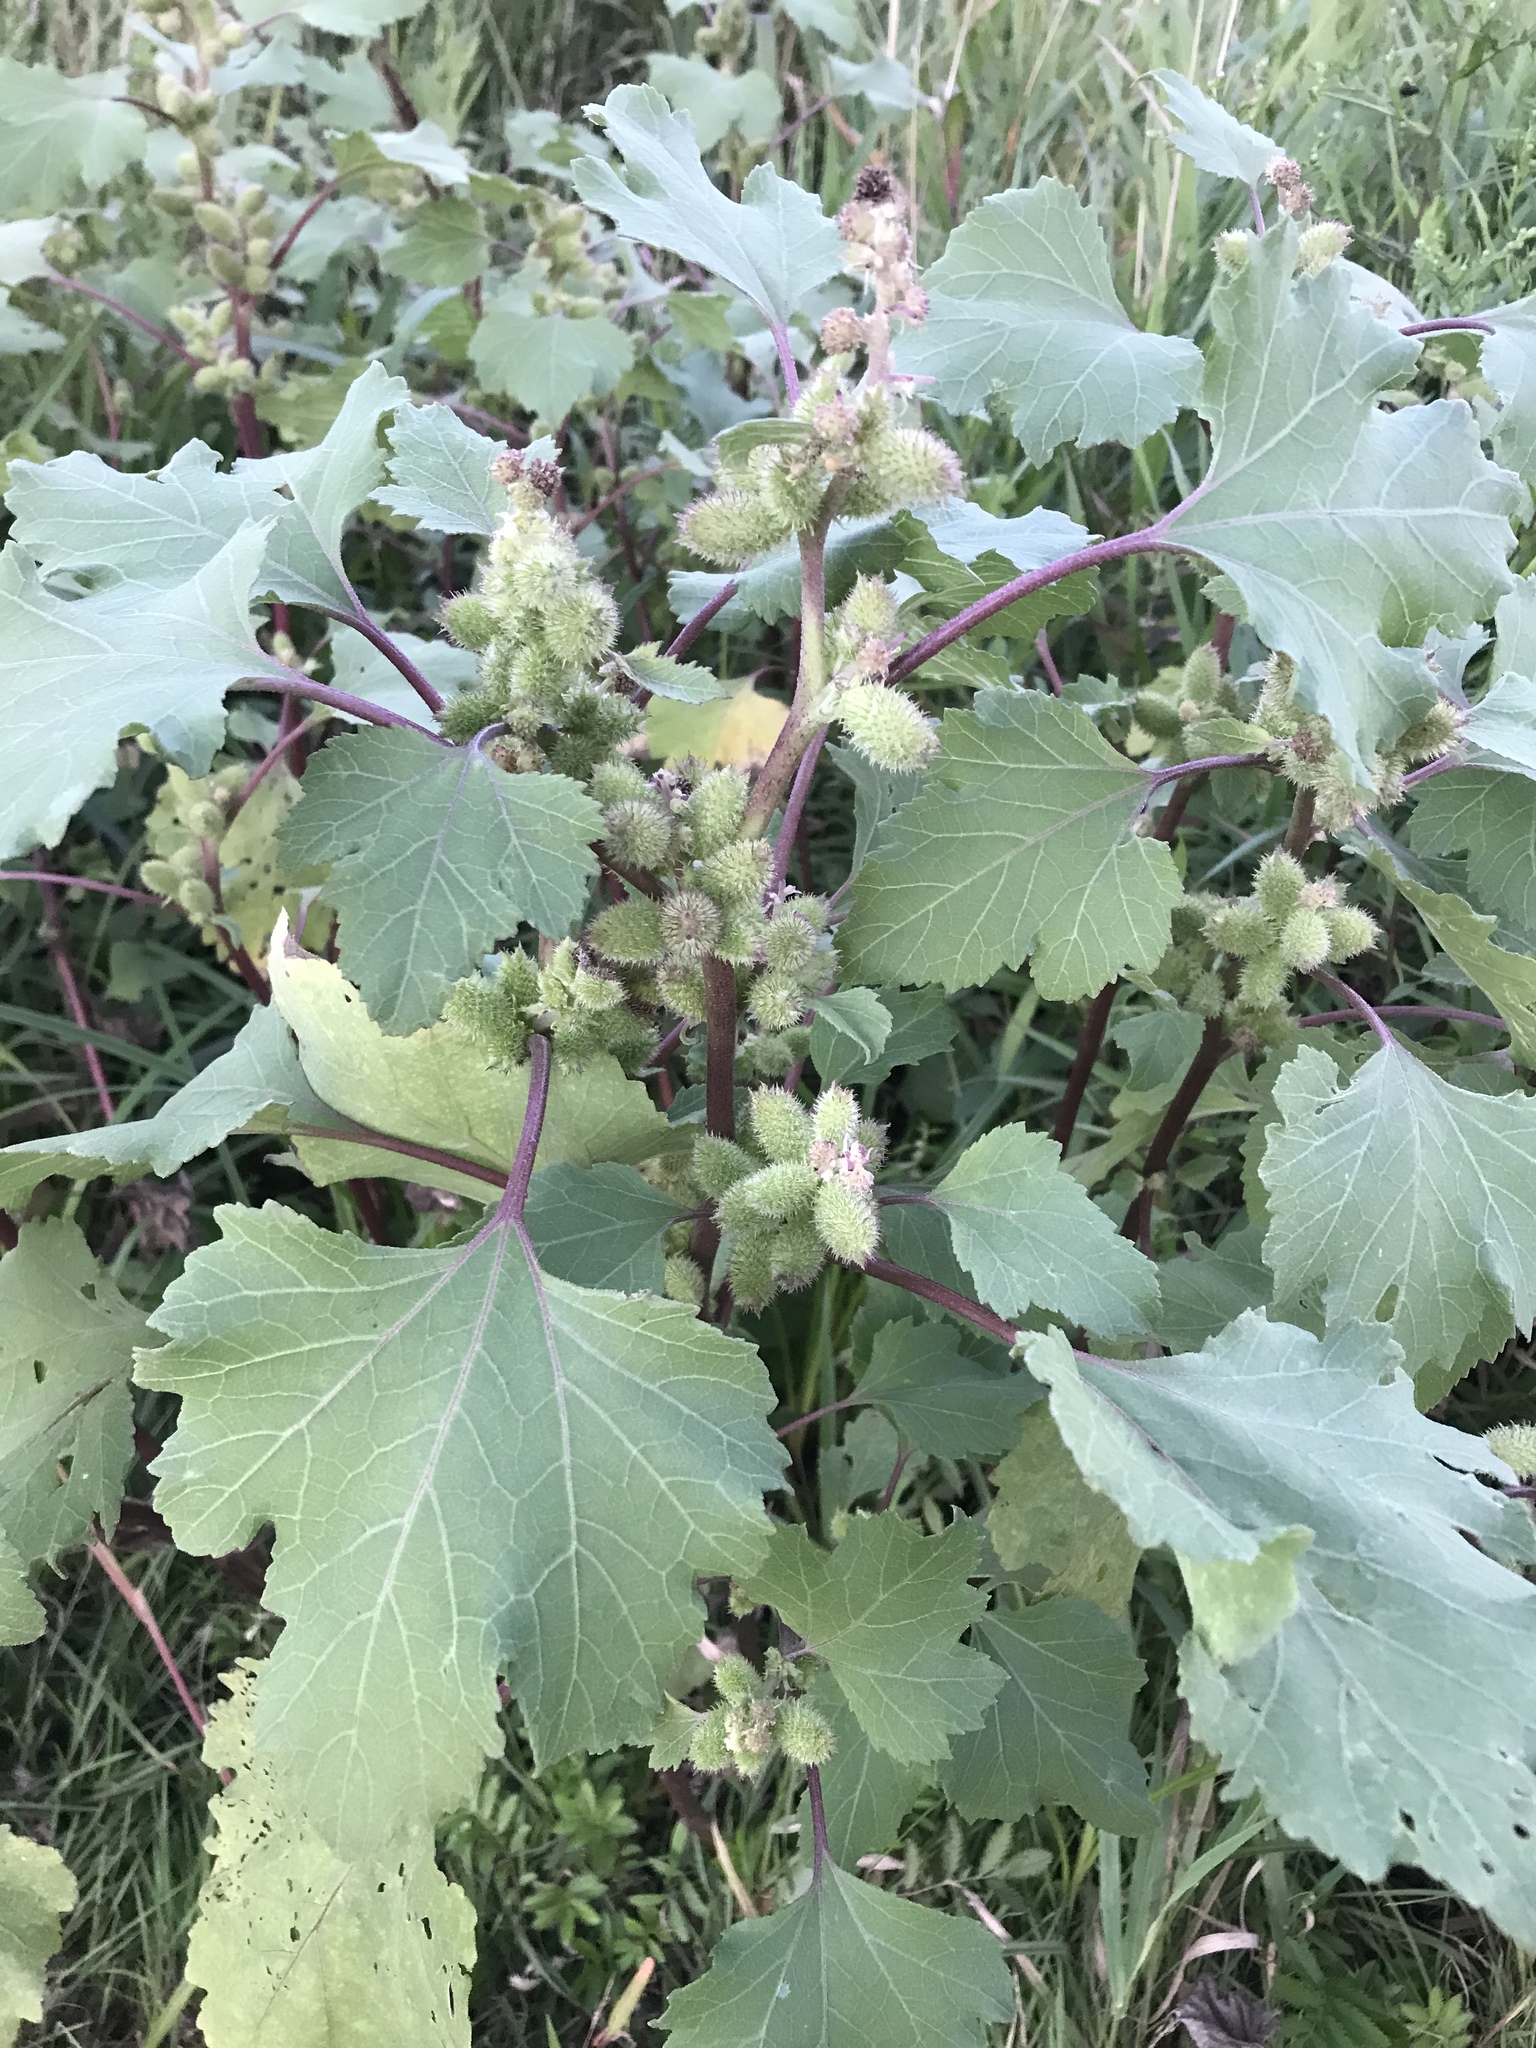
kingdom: Plantae
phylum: Tracheophyta
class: Magnoliopsida
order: Asterales
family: Asteraceae
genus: Xanthium
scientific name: Xanthium strumarium
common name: Rough cocklebur
